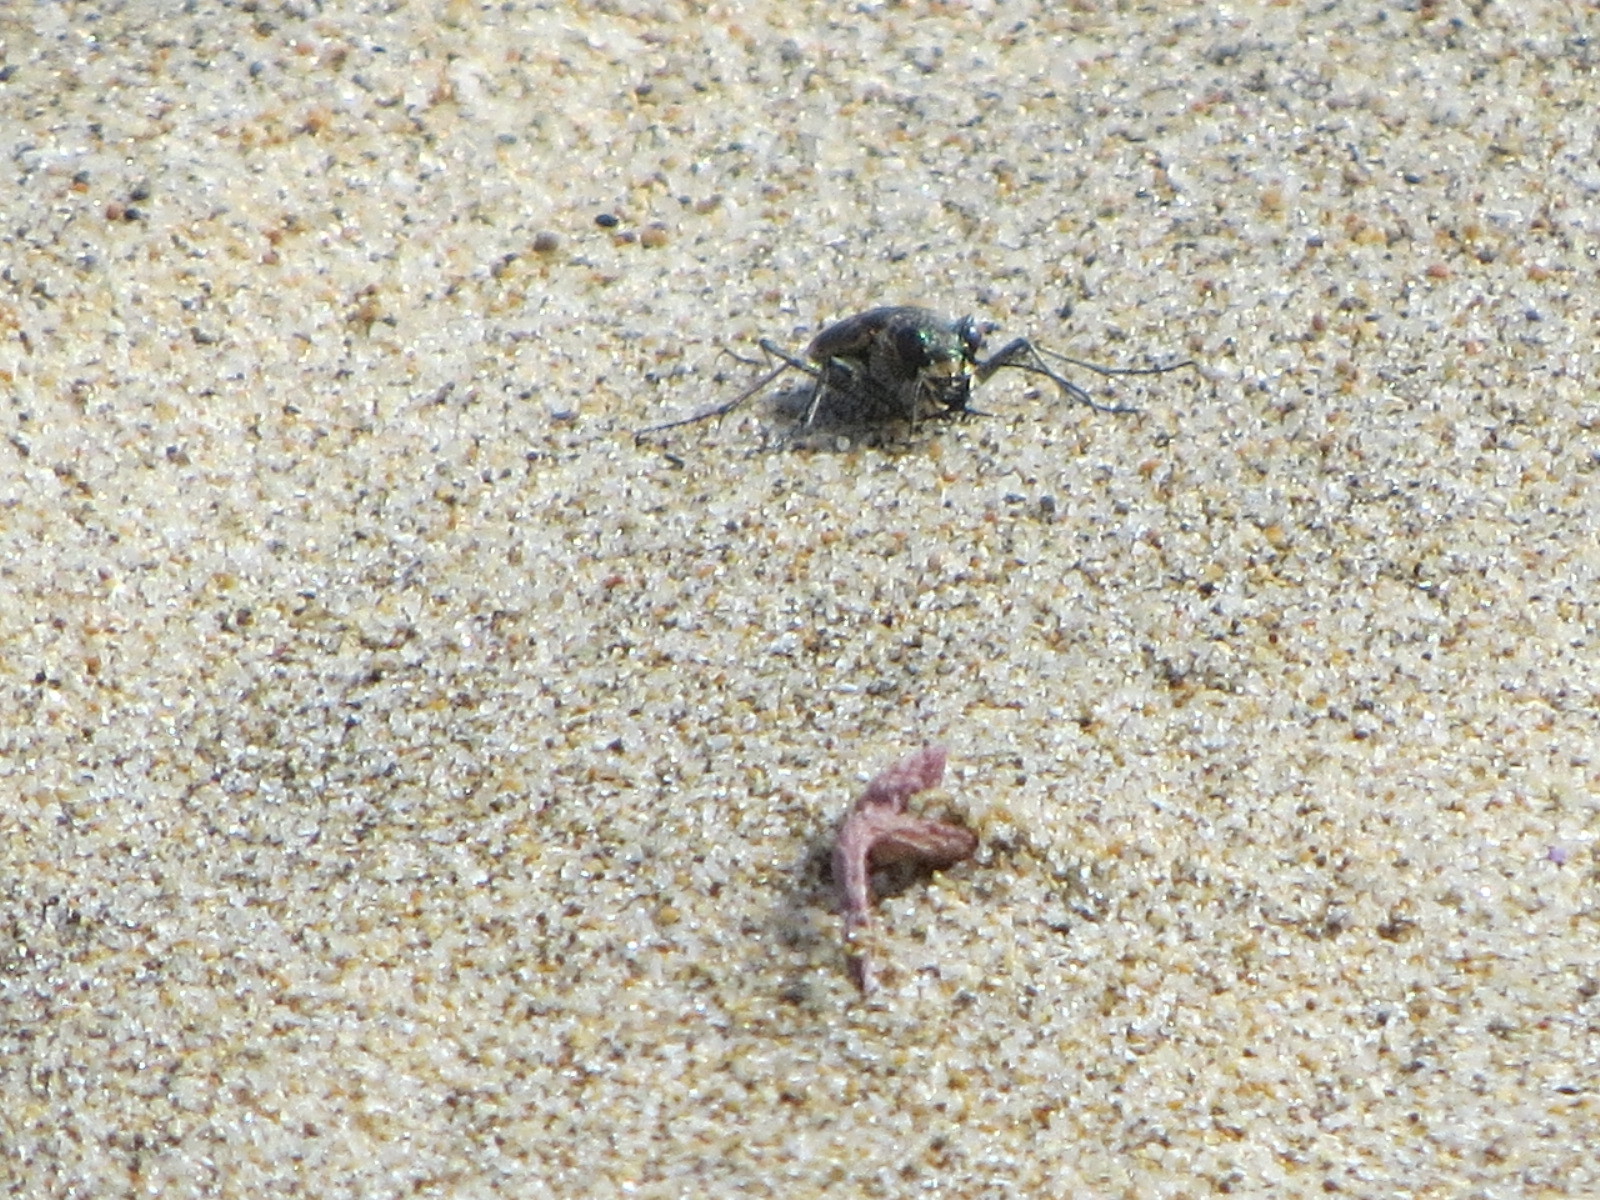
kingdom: Animalia
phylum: Arthropoda
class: Insecta
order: Coleoptera
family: Carabidae
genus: Cicindela
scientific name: Cicindela hirticollis
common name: Hairy-necked tiger beetle
